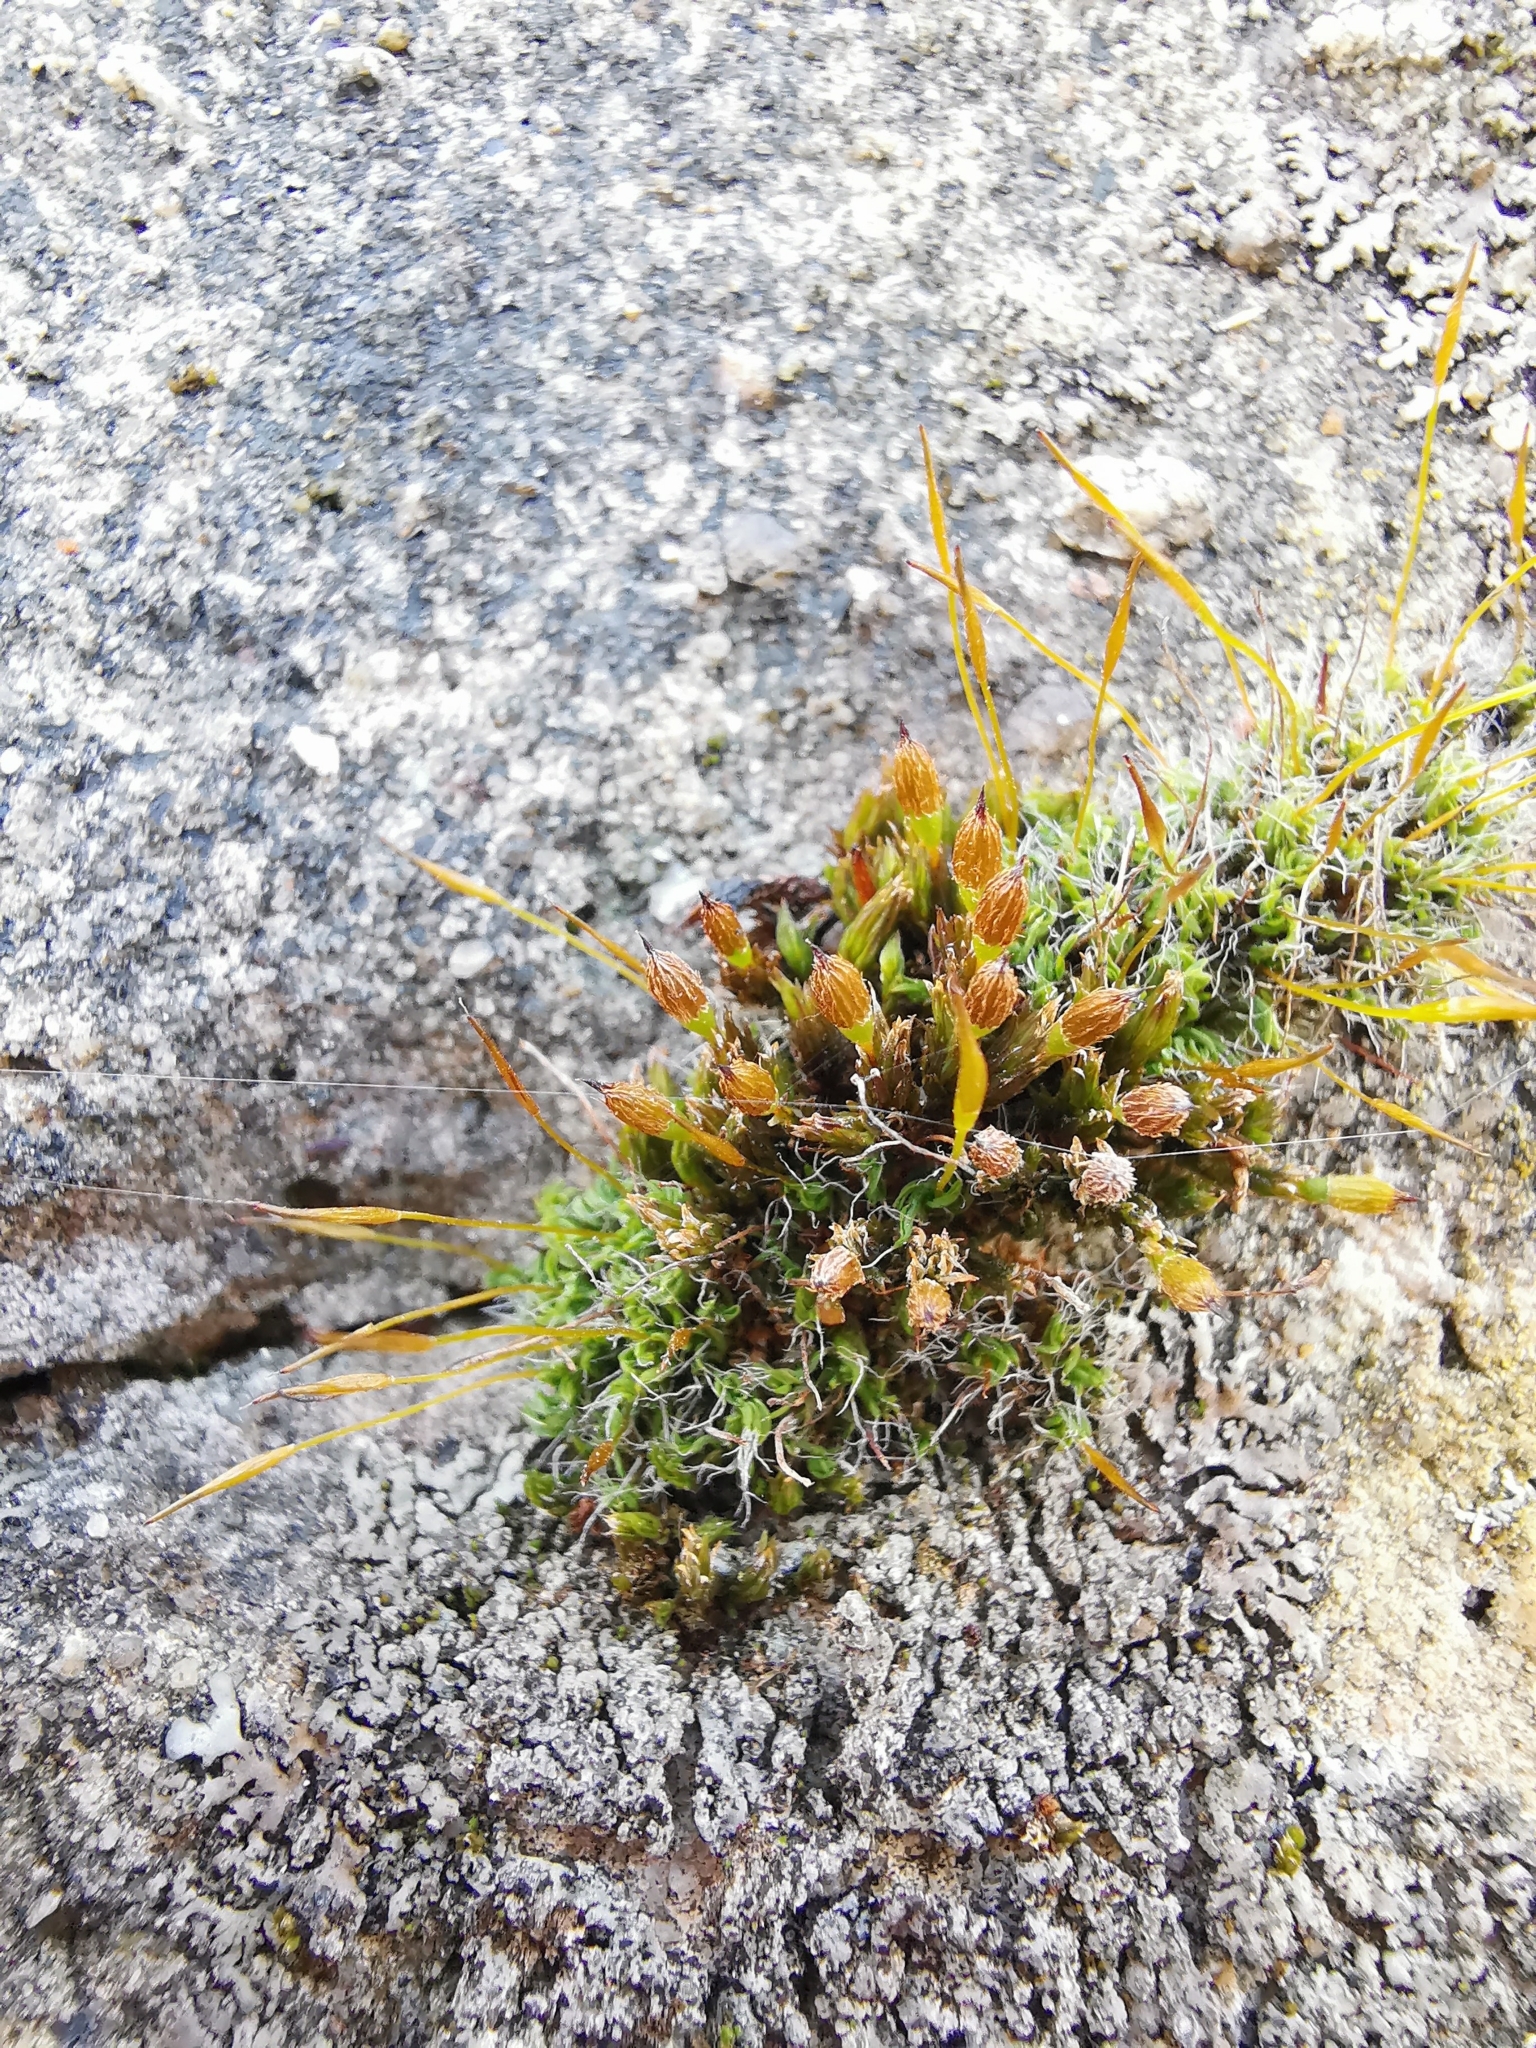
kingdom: Plantae
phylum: Bryophyta
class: Bryopsida
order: Orthotrichales
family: Orthotrichaceae
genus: Orthotrichum
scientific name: Orthotrichum anomalum
